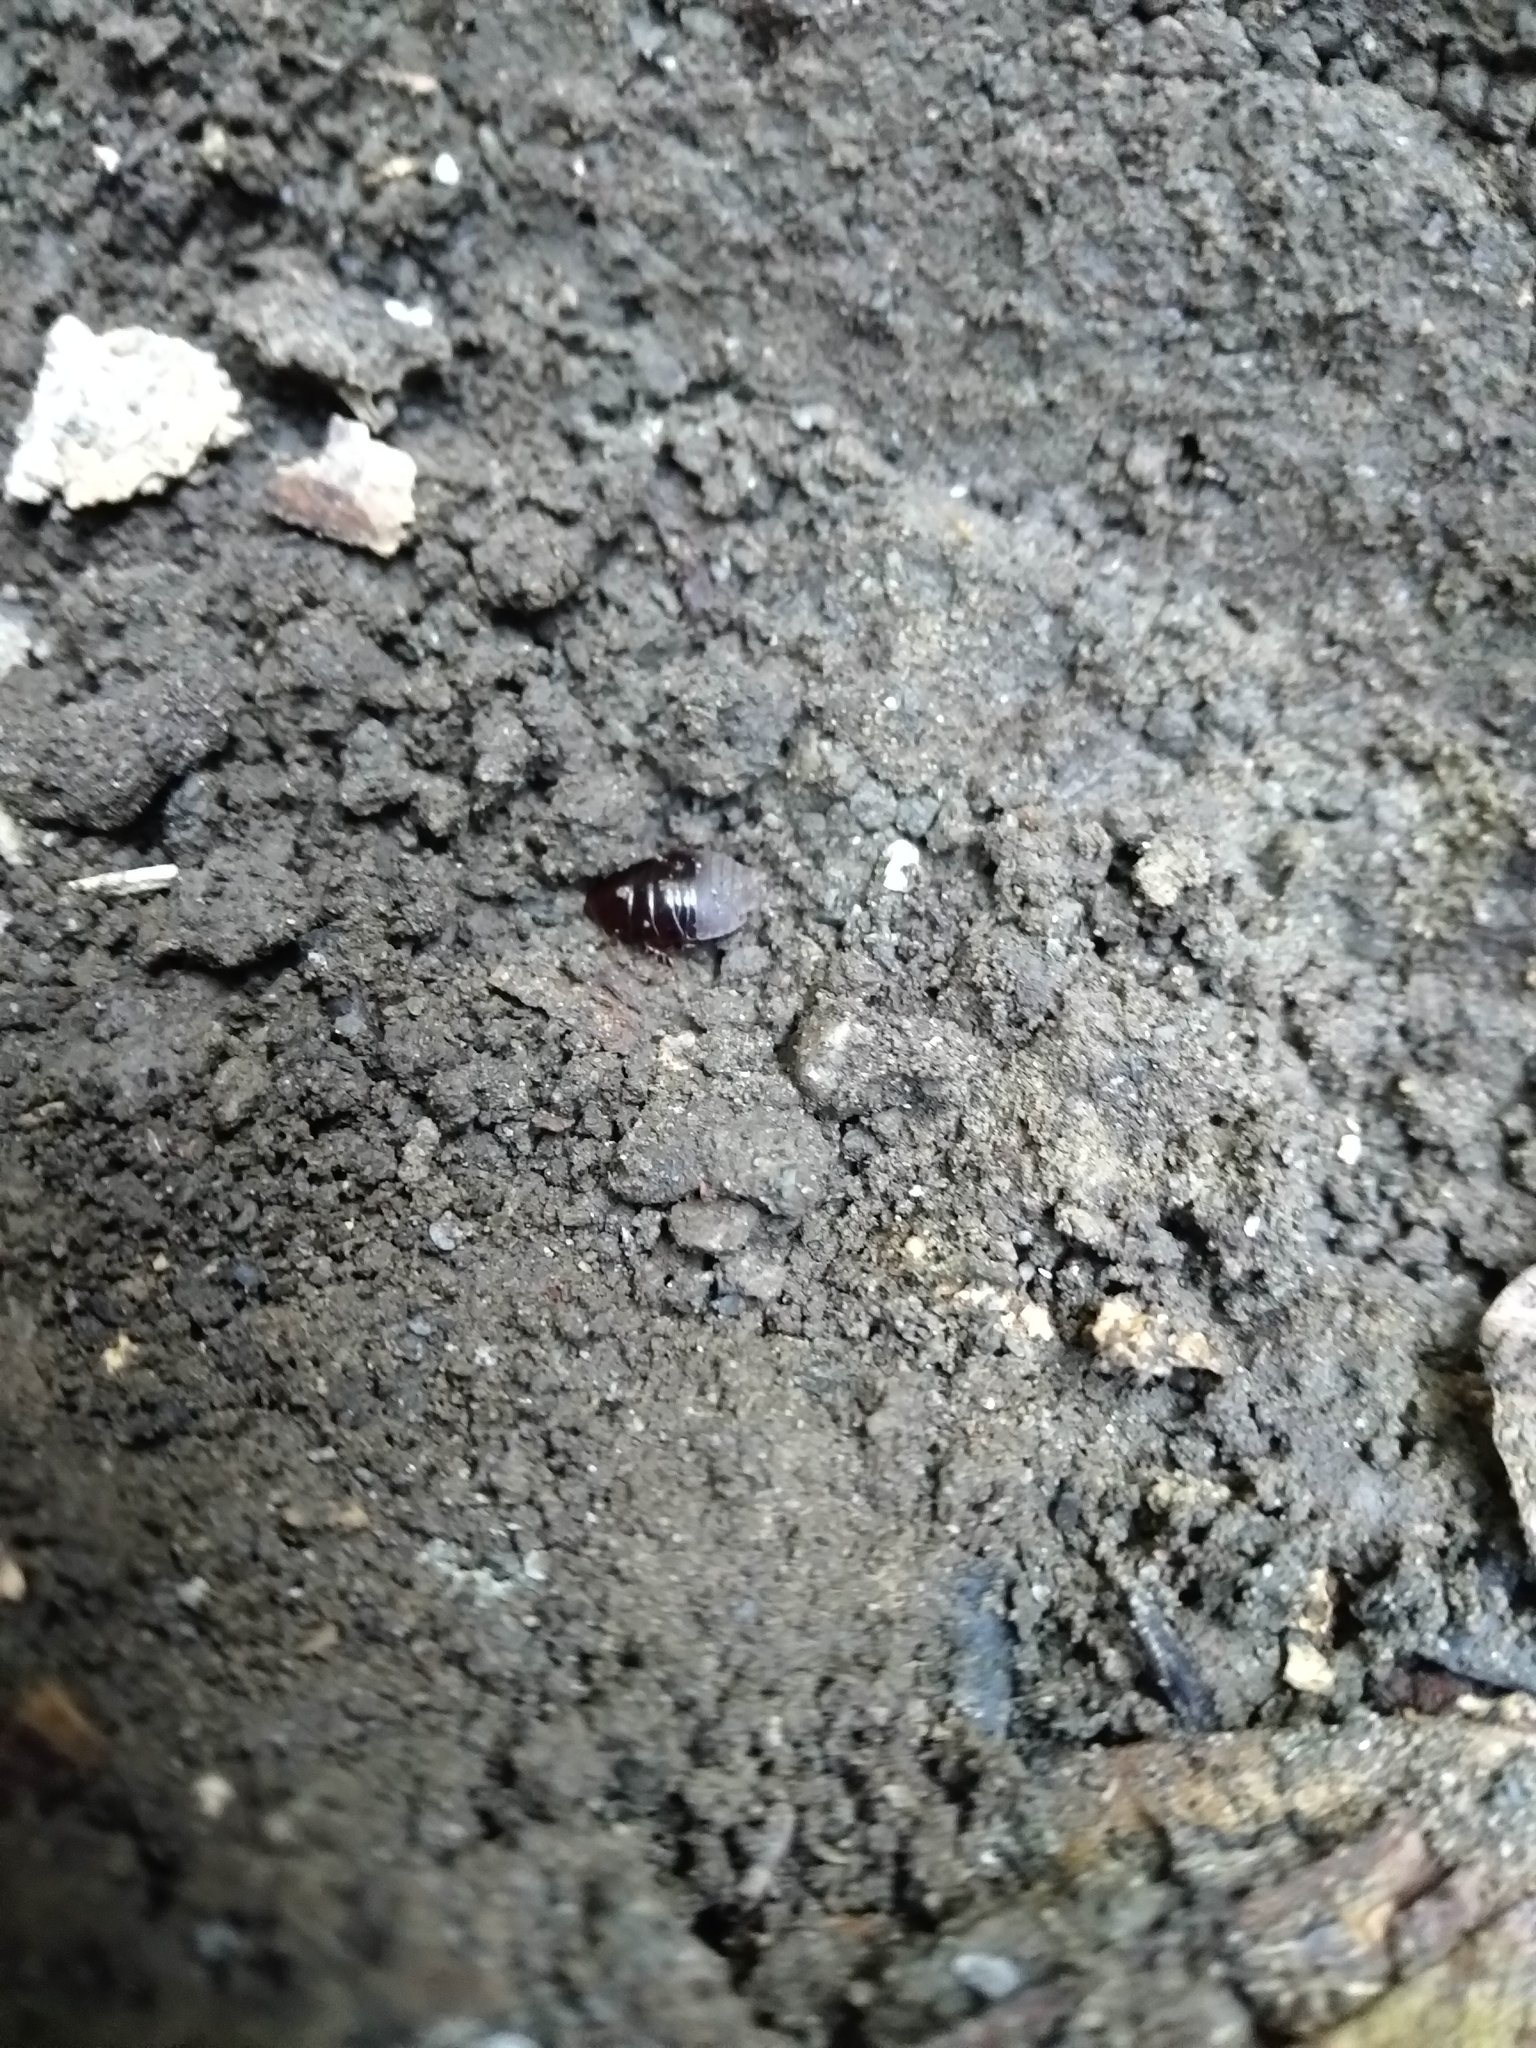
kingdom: Animalia
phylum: Arthropoda
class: Insecta
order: Blattodea
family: Blaberidae
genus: Pycnoscelus
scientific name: Pycnoscelus surinamensis
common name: Surinam cockroach
